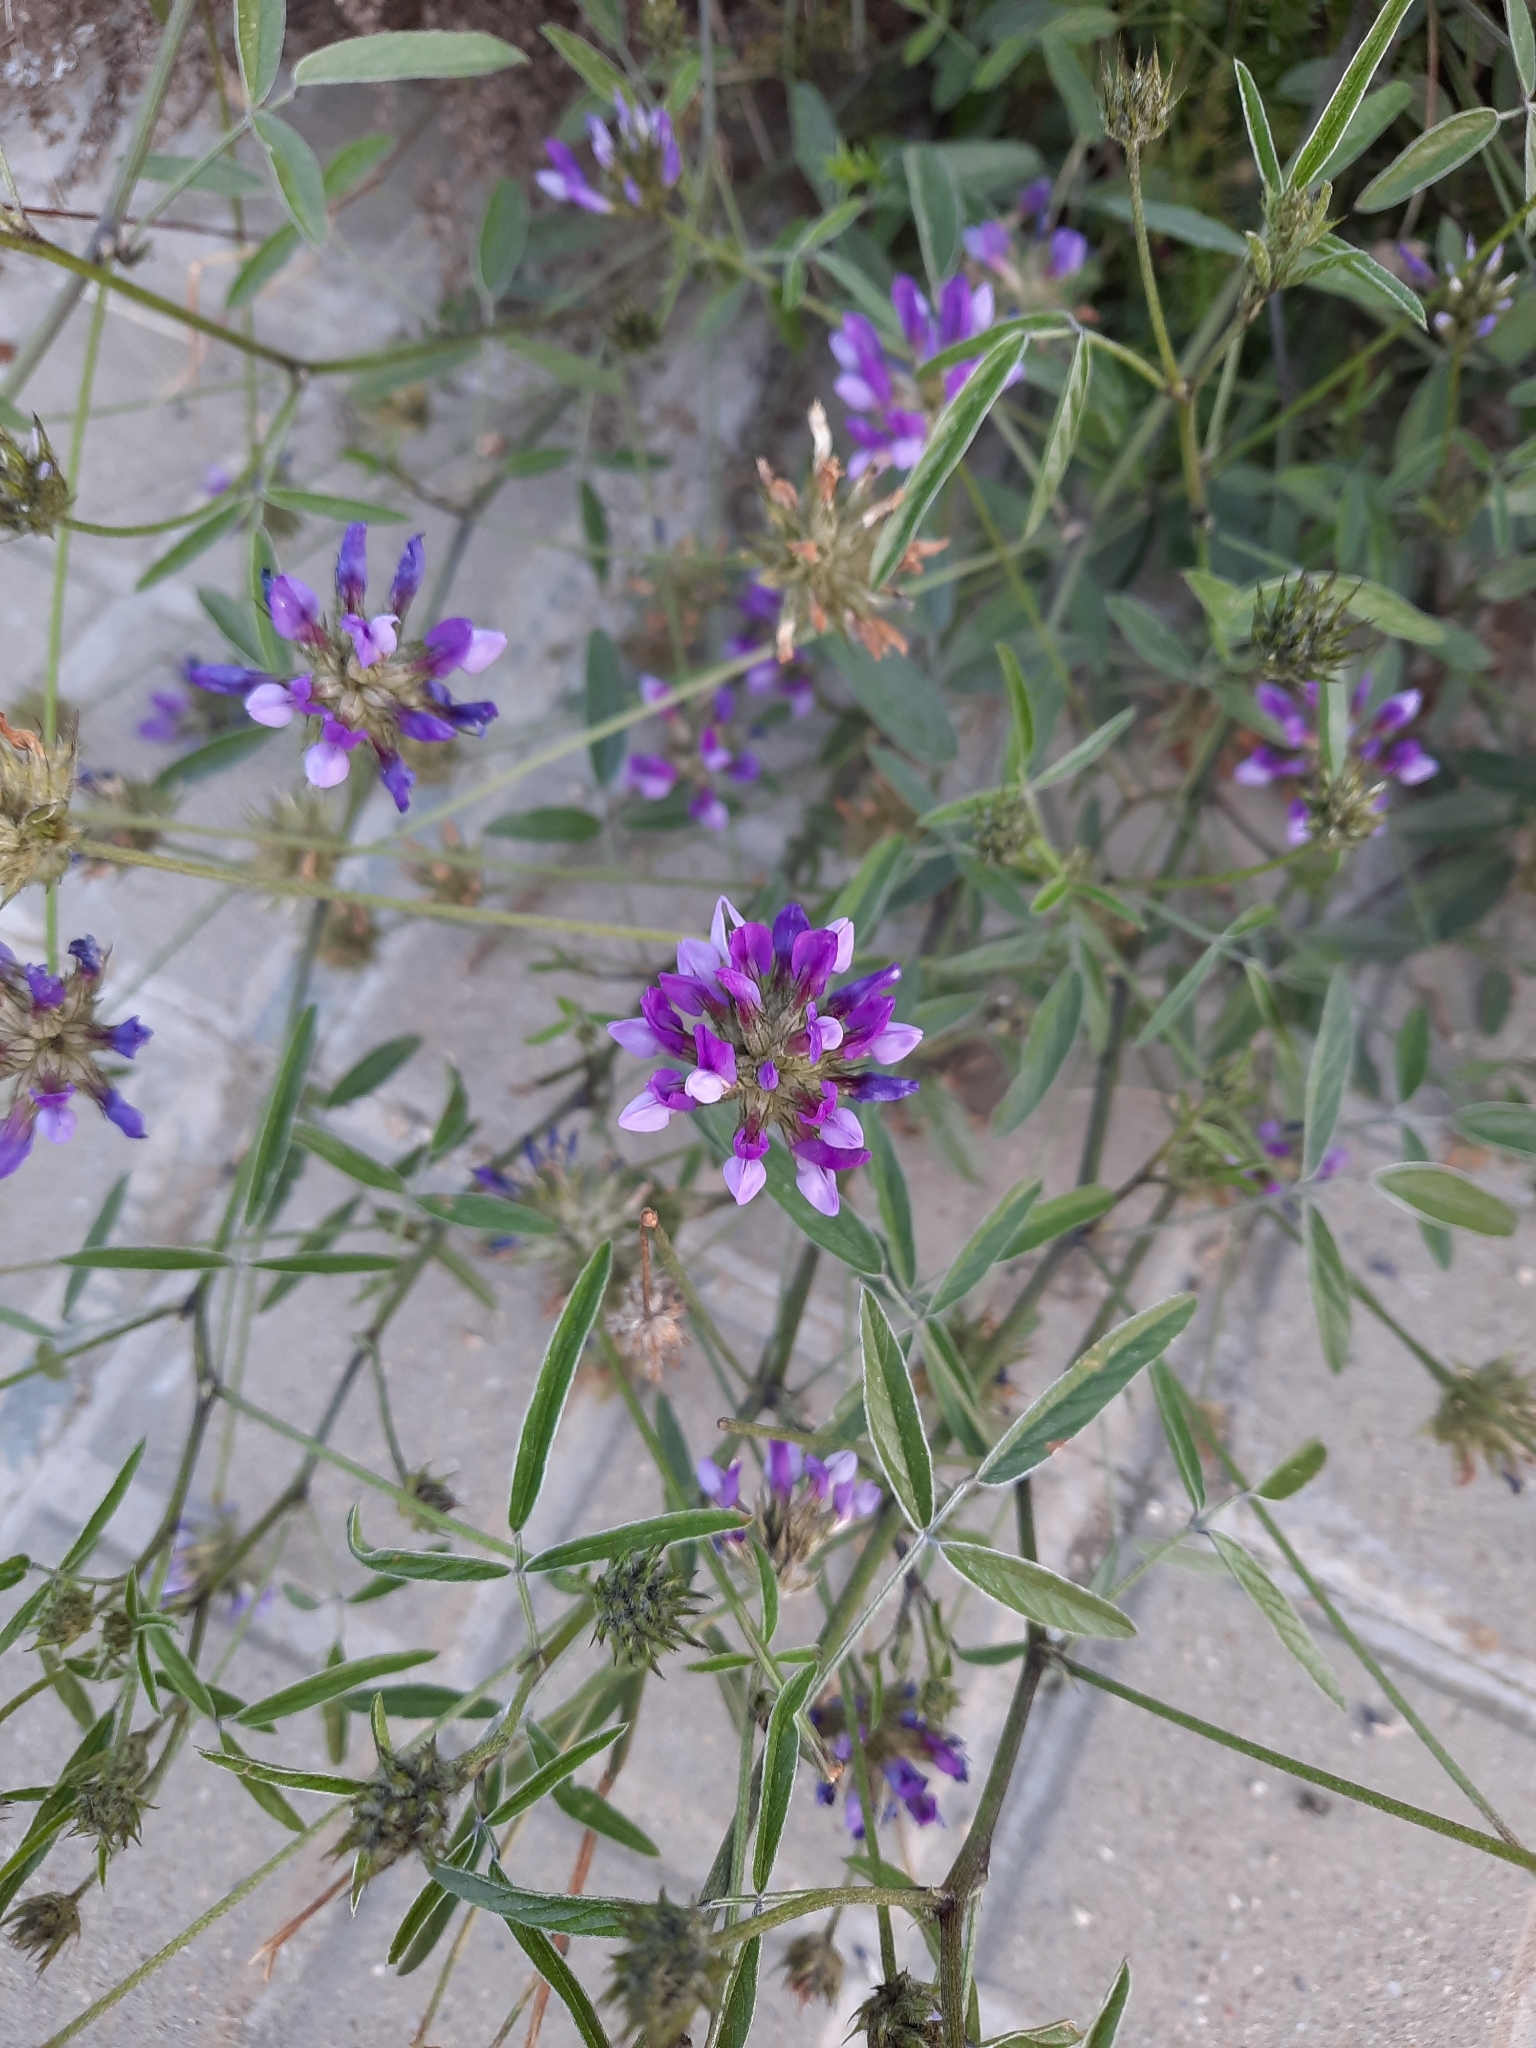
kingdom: Plantae
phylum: Tracheophyta
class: Magnoliopsida
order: Fabales
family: Fabaceae
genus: Bituminaria
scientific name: Bituminaria bituminosa
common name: Arabian pea
